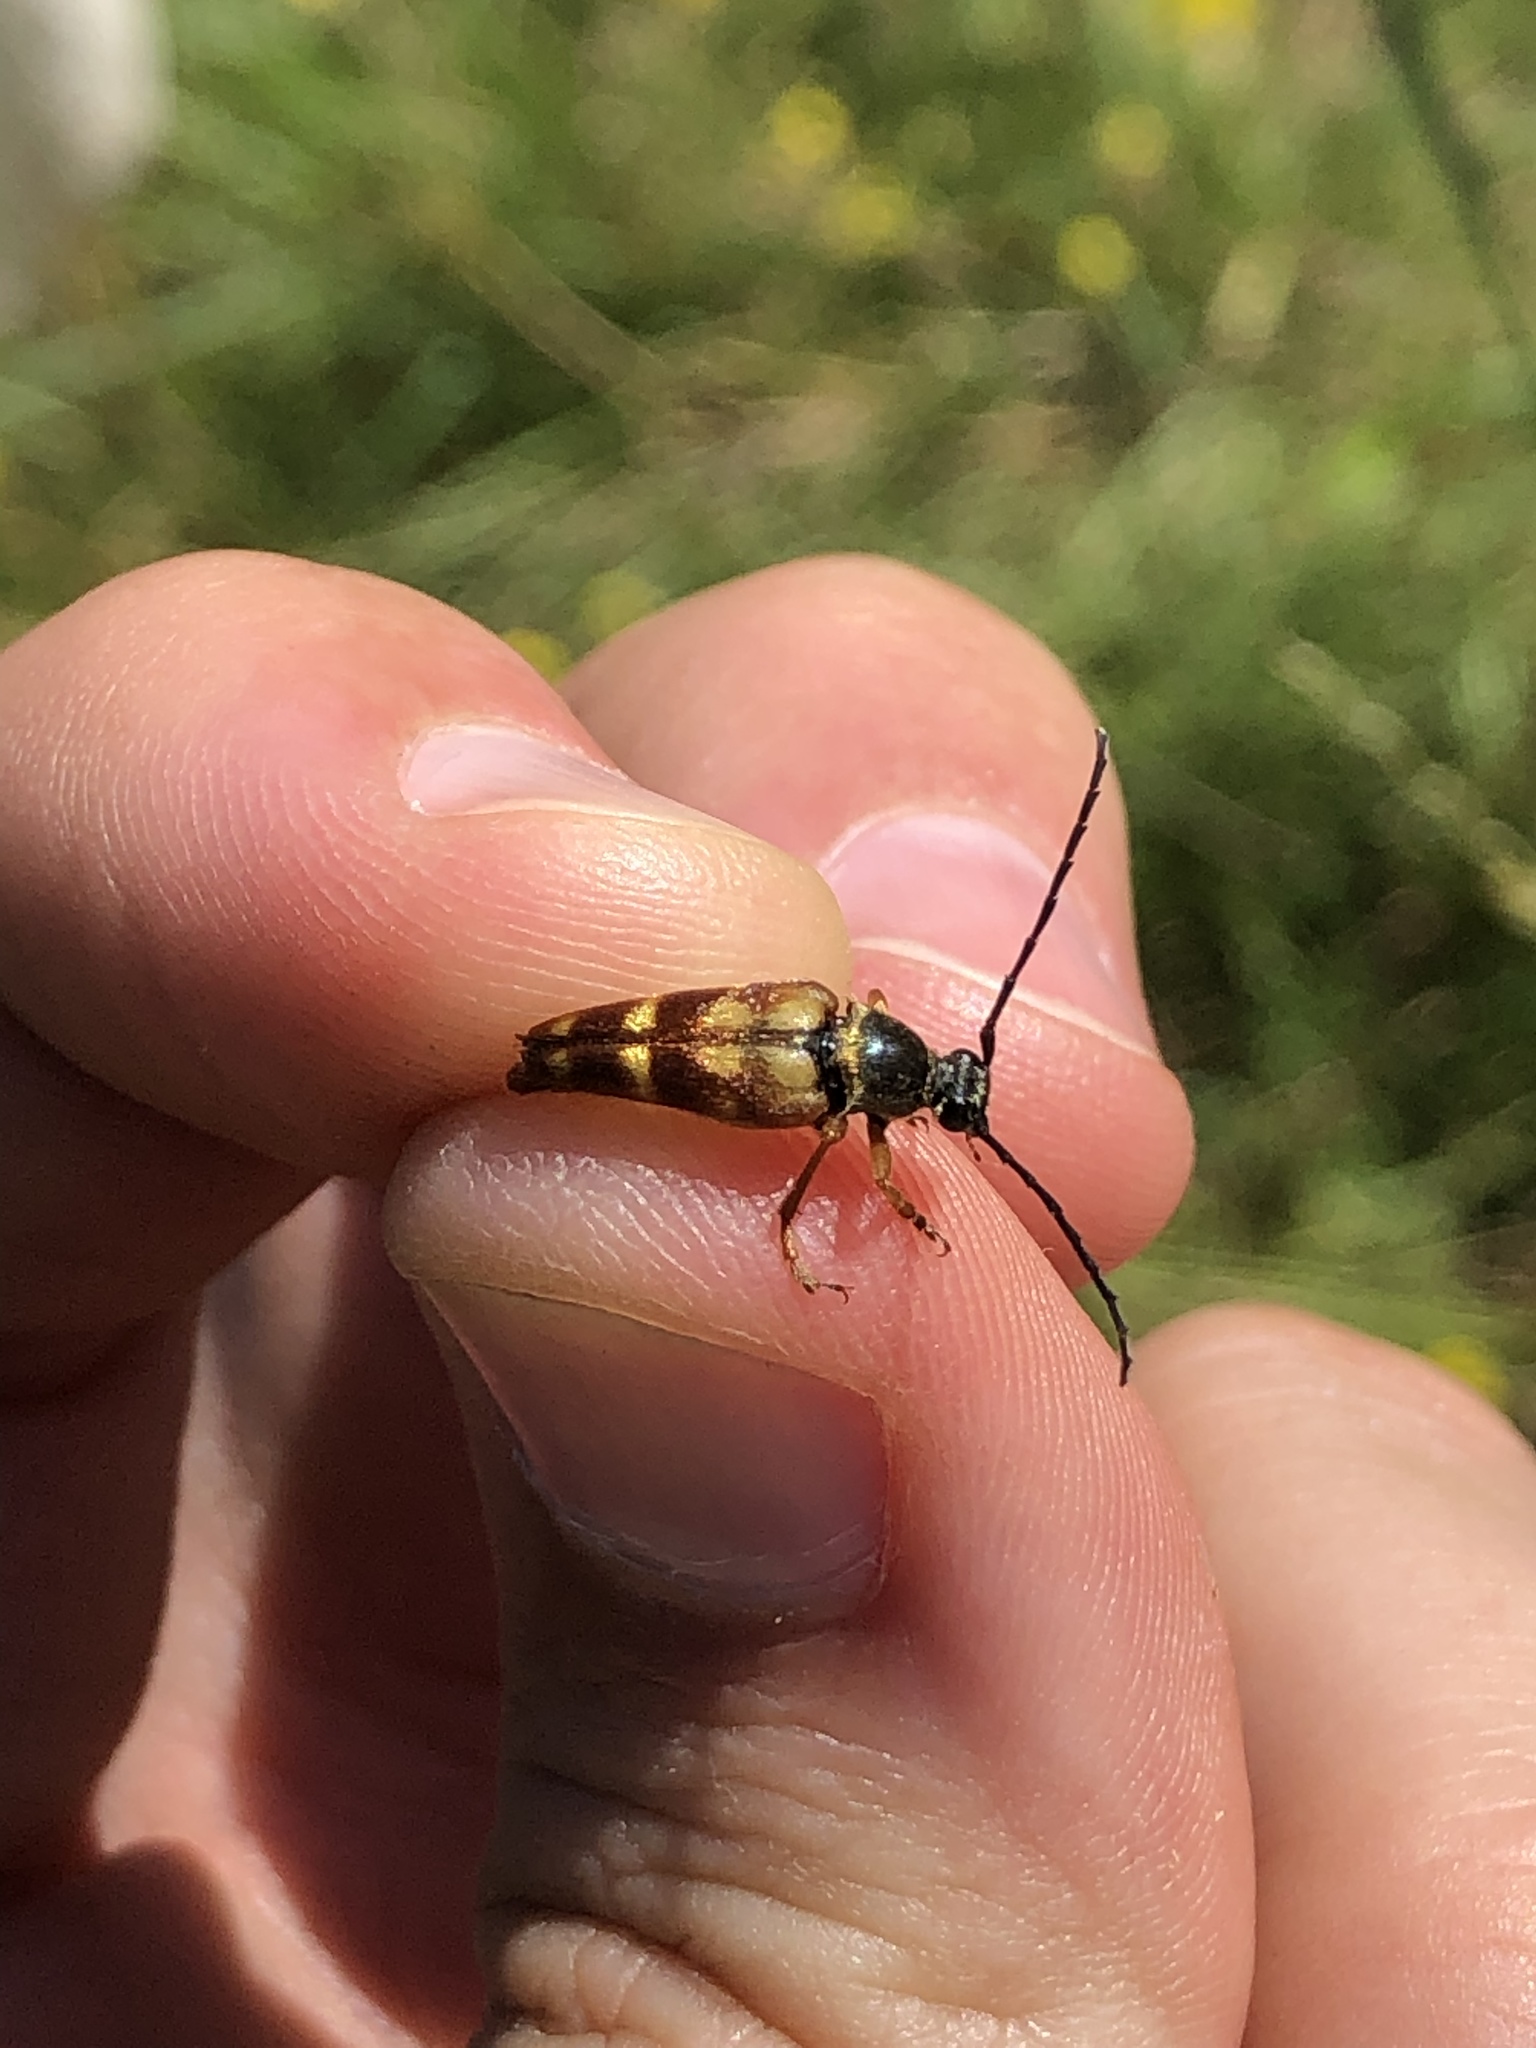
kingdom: Animalia
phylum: Arthropoda
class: Insecta
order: Coleoptera
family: Cerambycidae
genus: Typocerus
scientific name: Typocerus velutinus
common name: Banded longhorn beetle
